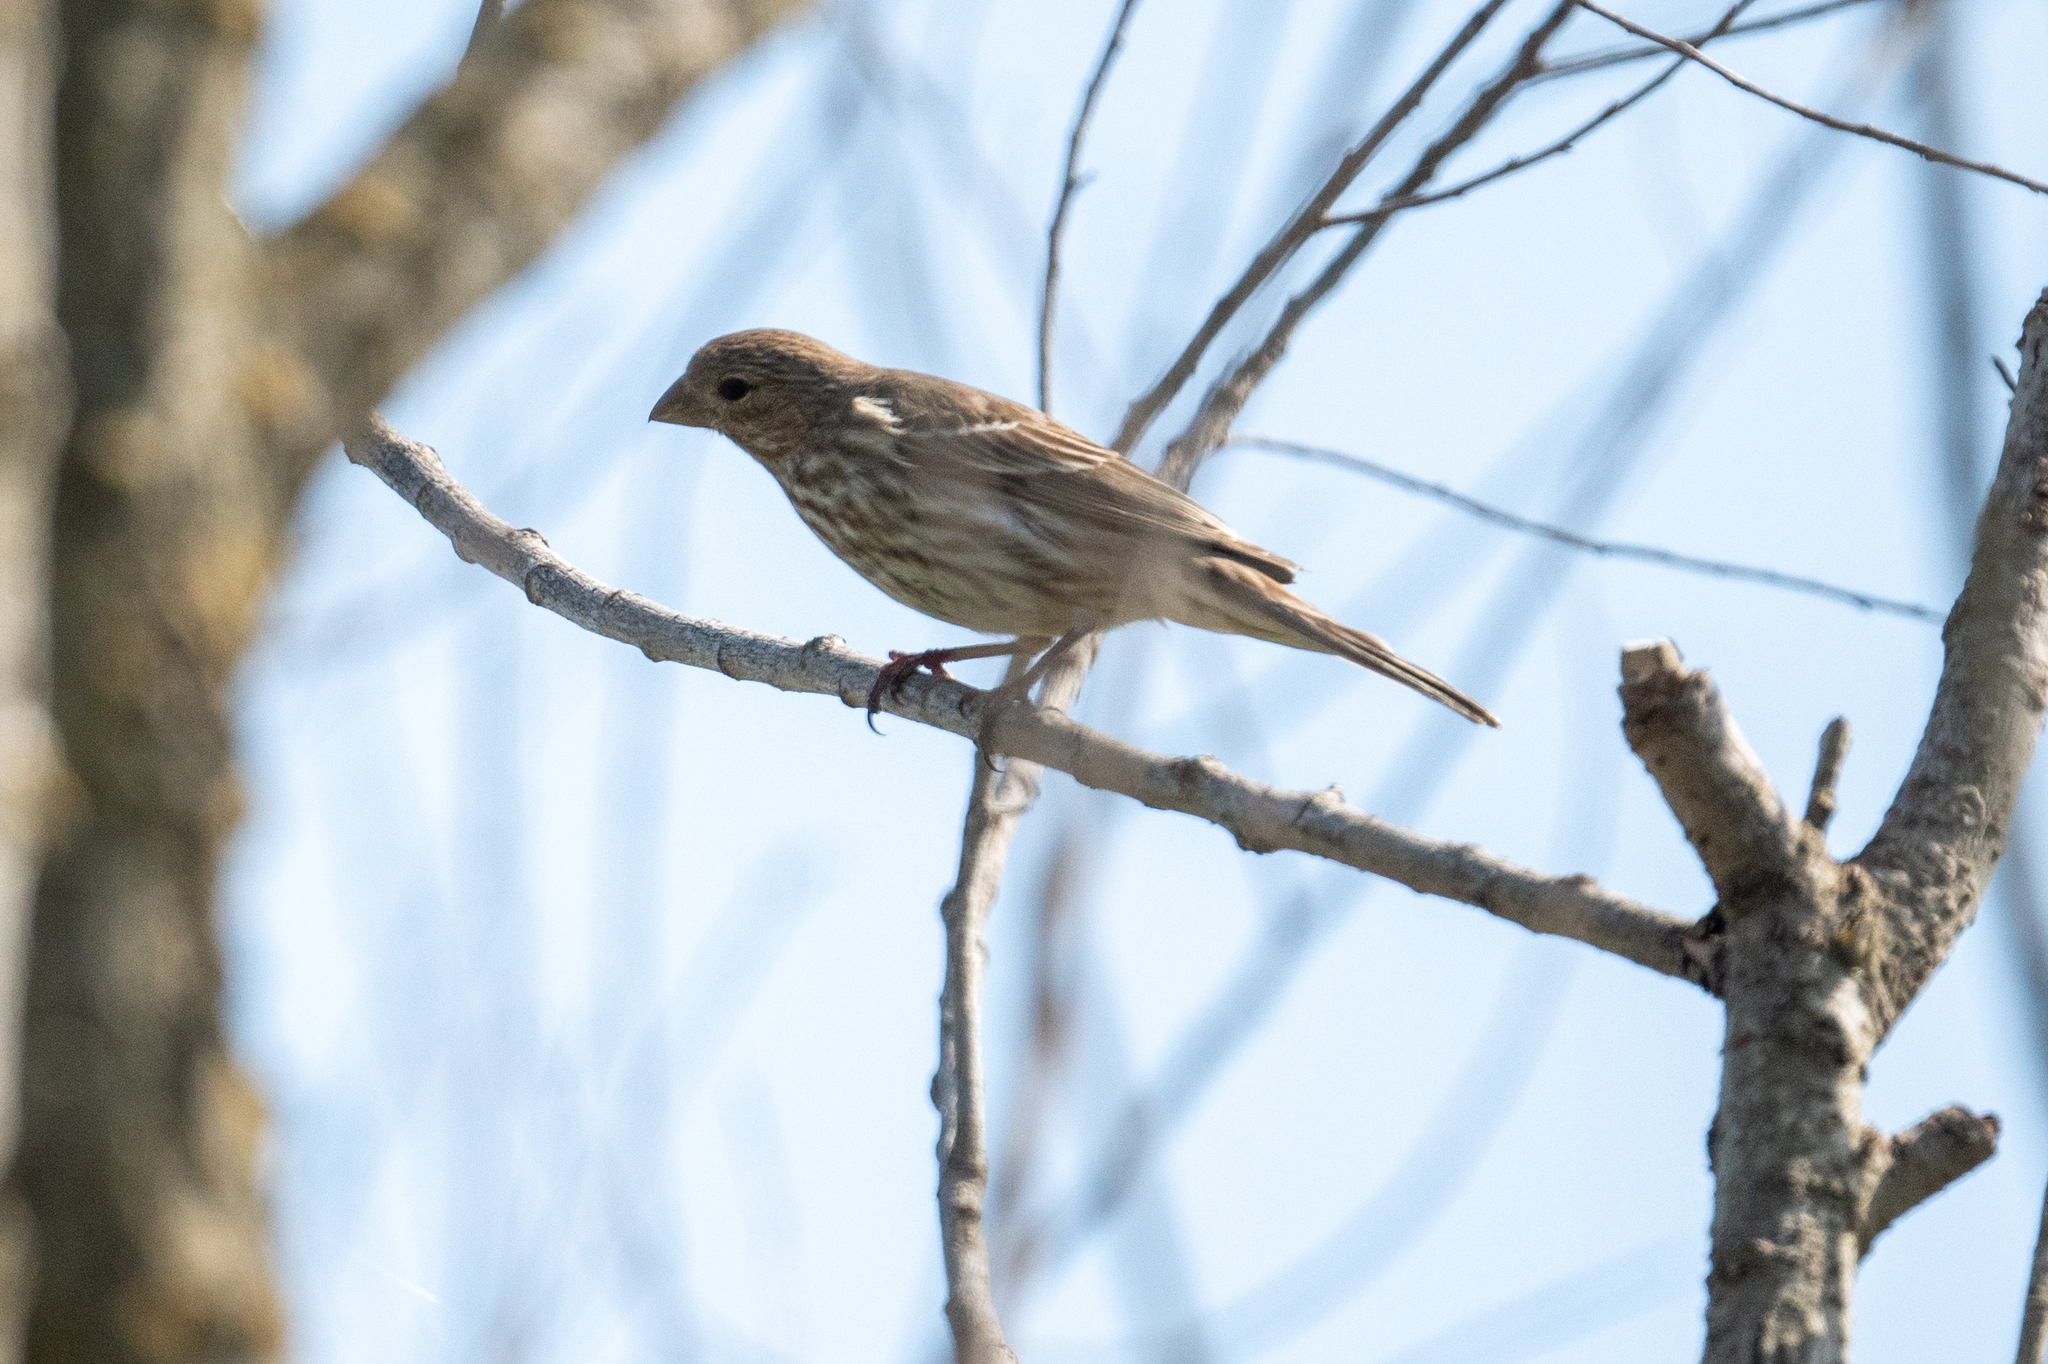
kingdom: Animalia
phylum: Chordata
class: Aves
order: Passeriformes
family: Fringillidae
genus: Haemorhous
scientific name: Haemorhous mexicanus
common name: House finch
